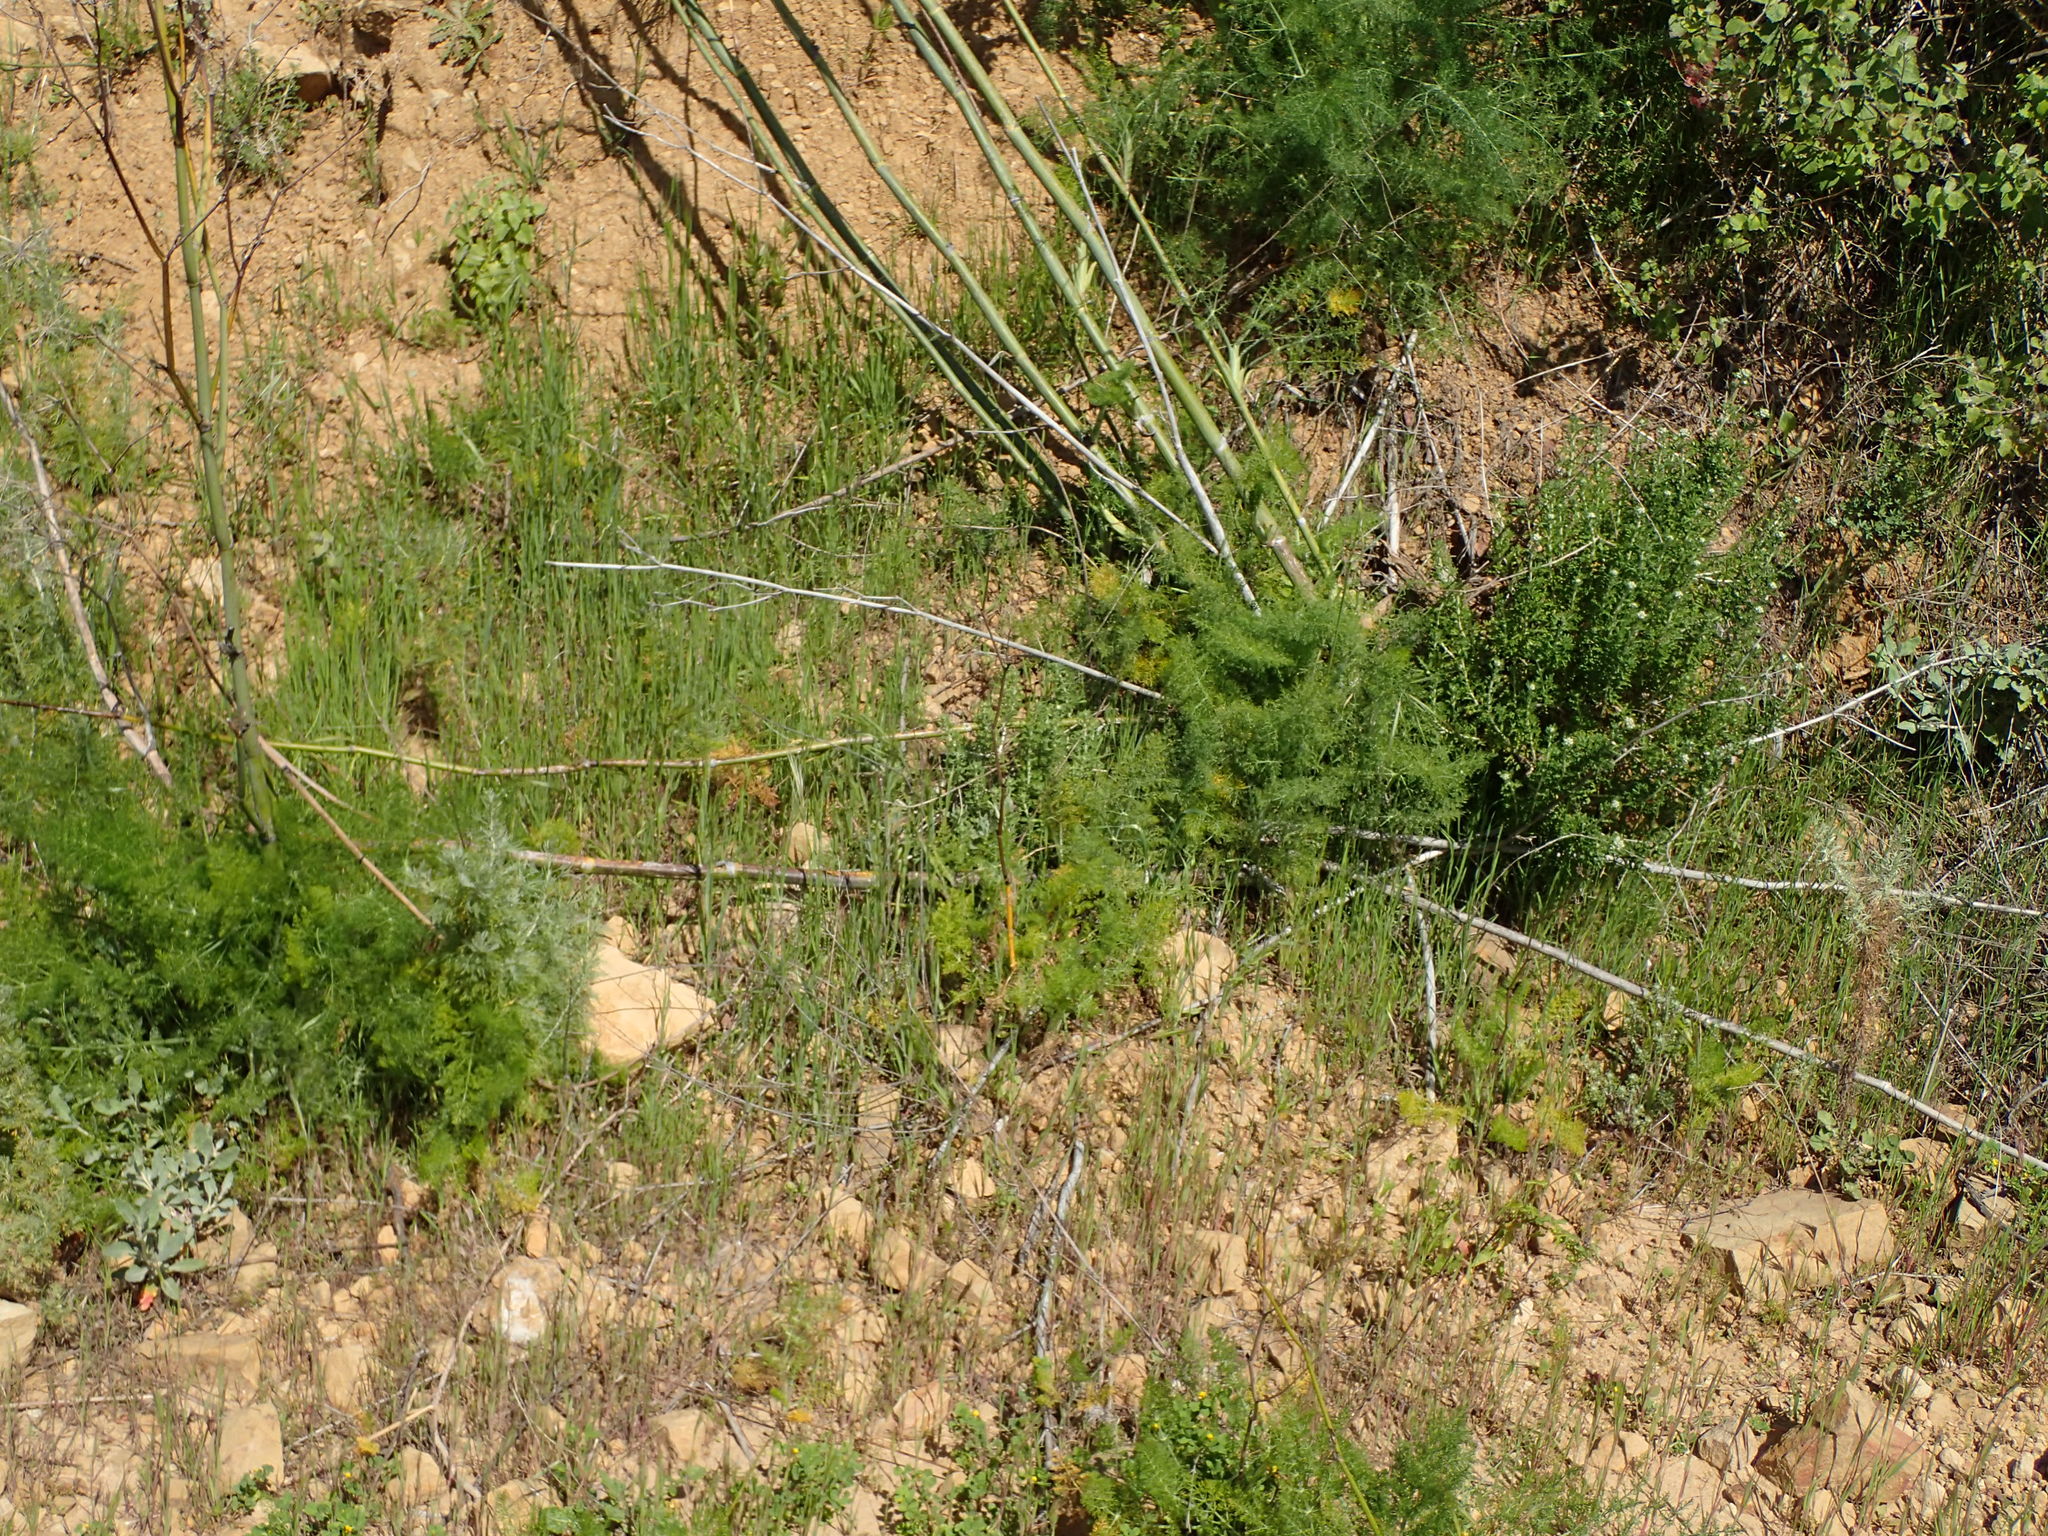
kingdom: Plantae
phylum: Tracheophyta
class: Magnoliopsida
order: Apiales
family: Apiaceae
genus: Foeniculum
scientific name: Foeniculum vulgare
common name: Fennel
